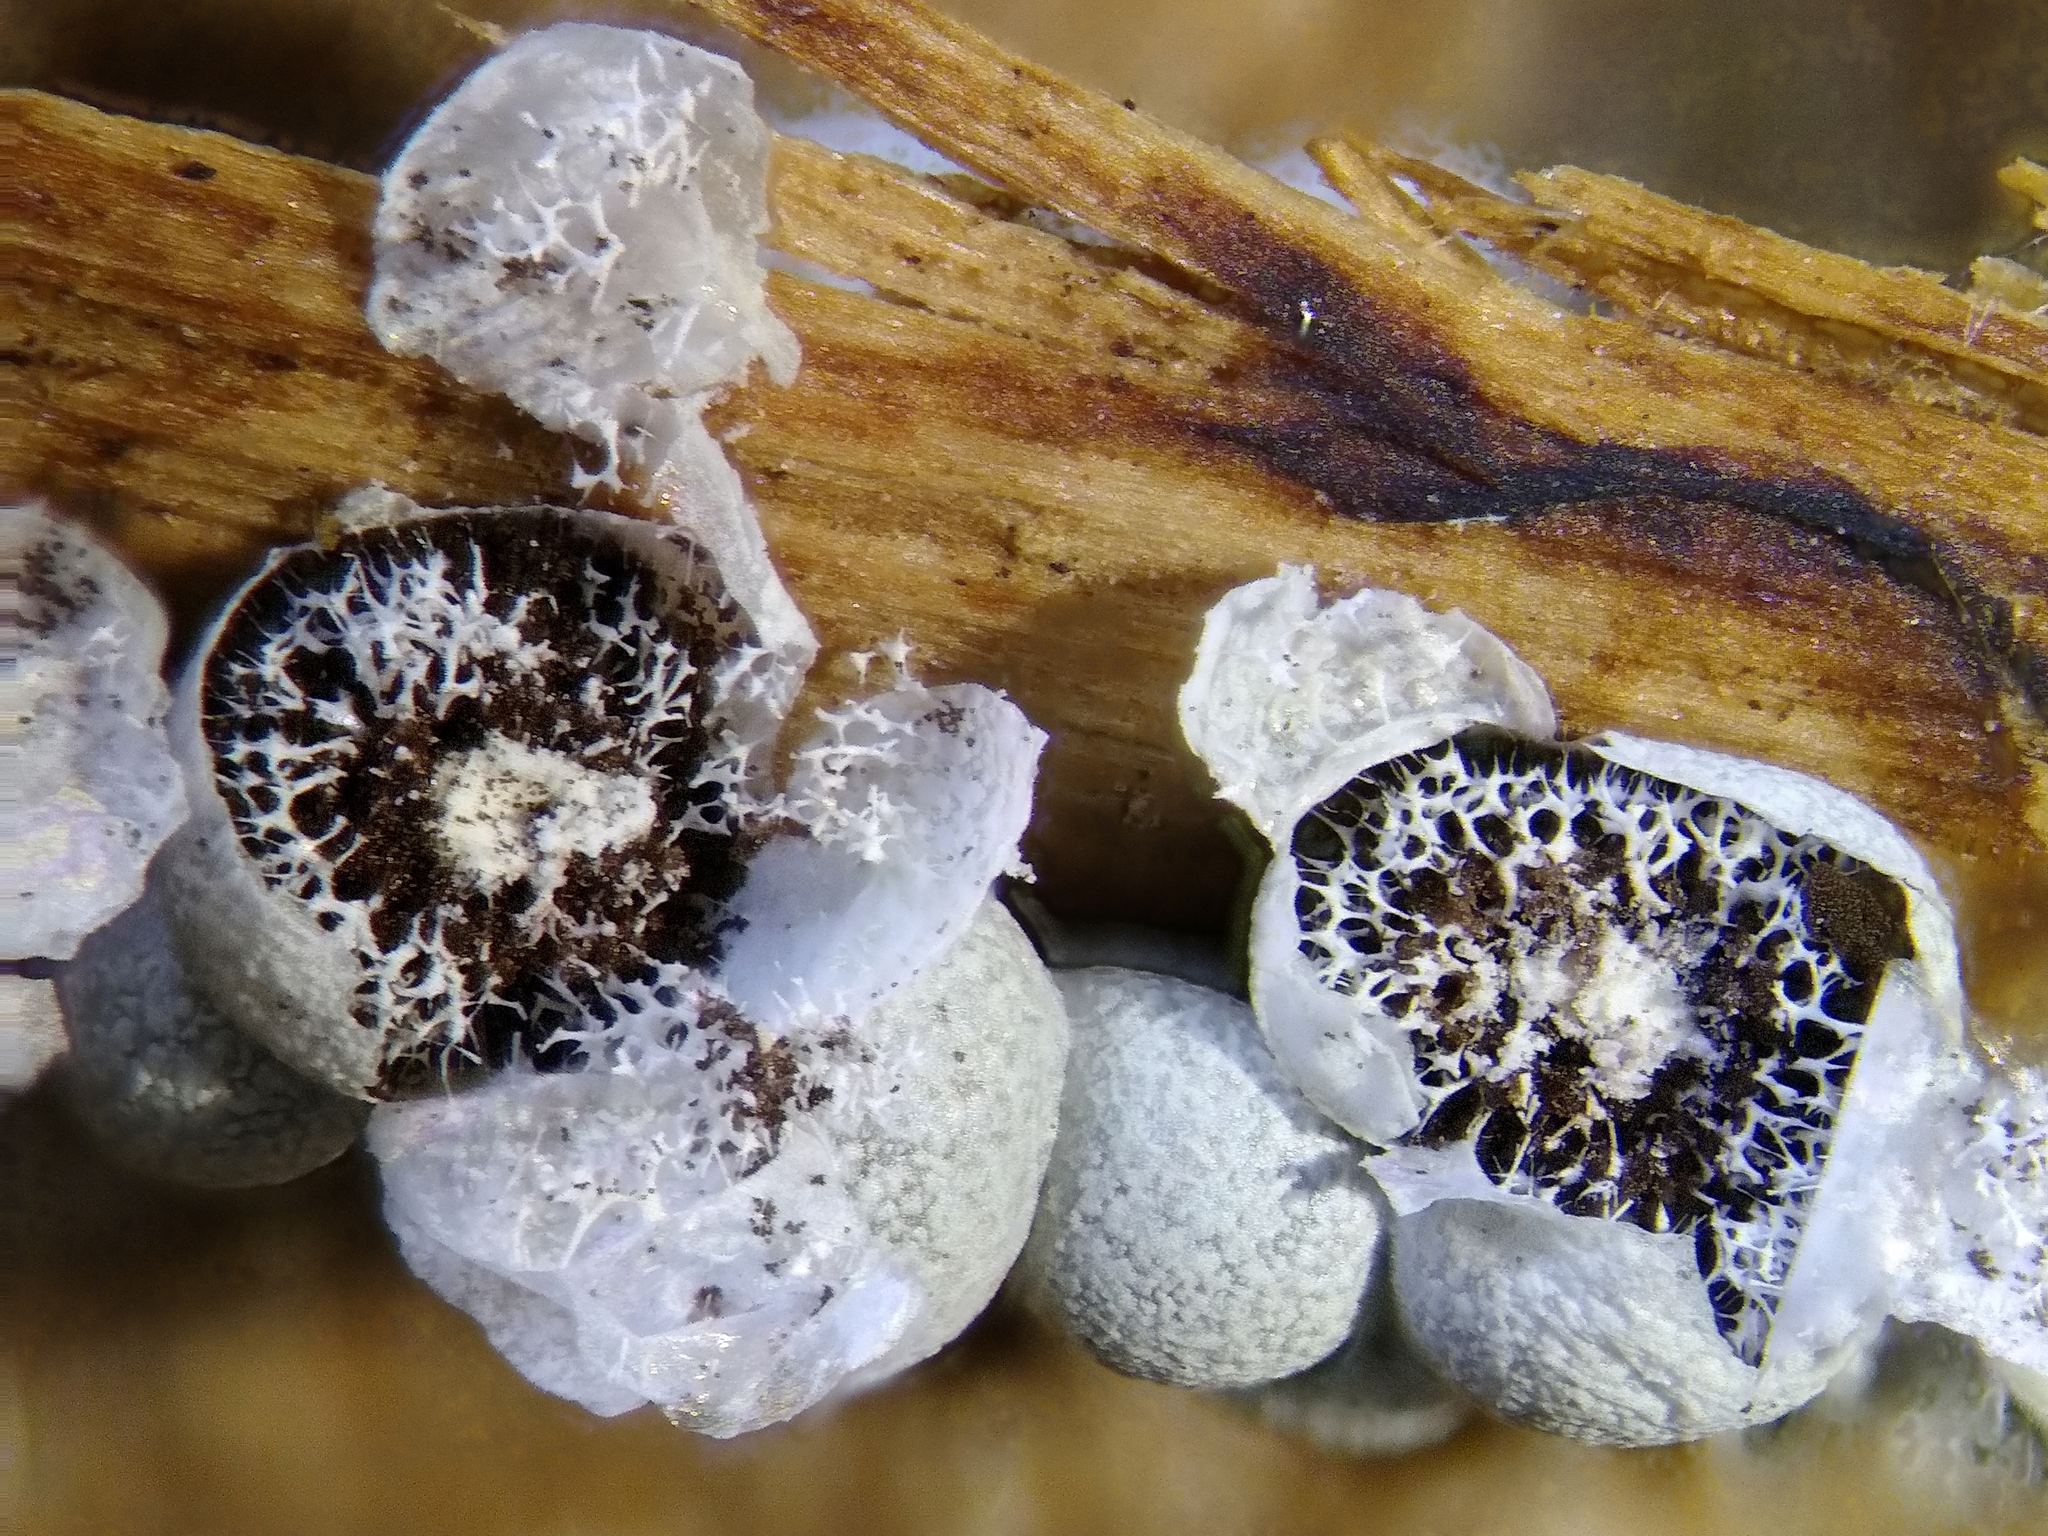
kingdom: Protozoa
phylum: Mycetozoa
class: Myxomycetes
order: Physarales
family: Physaraceae
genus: Badhamia
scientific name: Badhamia panicea
